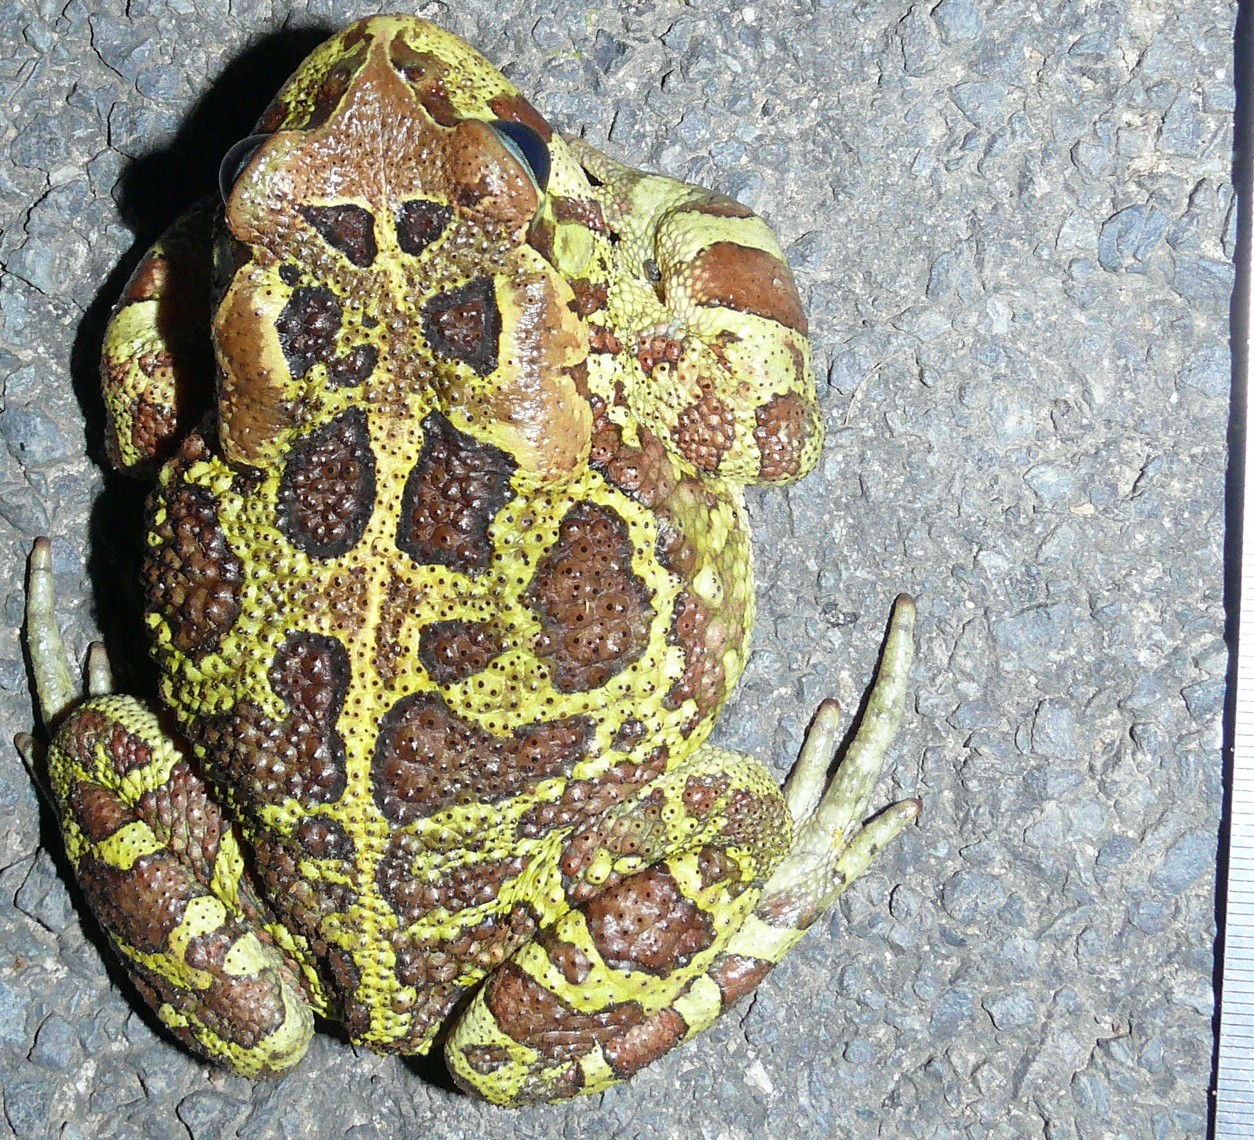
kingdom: Animalia
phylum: Chordata
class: Amphibia
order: Anura
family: Bufonidae
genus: Sclerophrys
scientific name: Sclerophrys pantherina
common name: Panther toad
